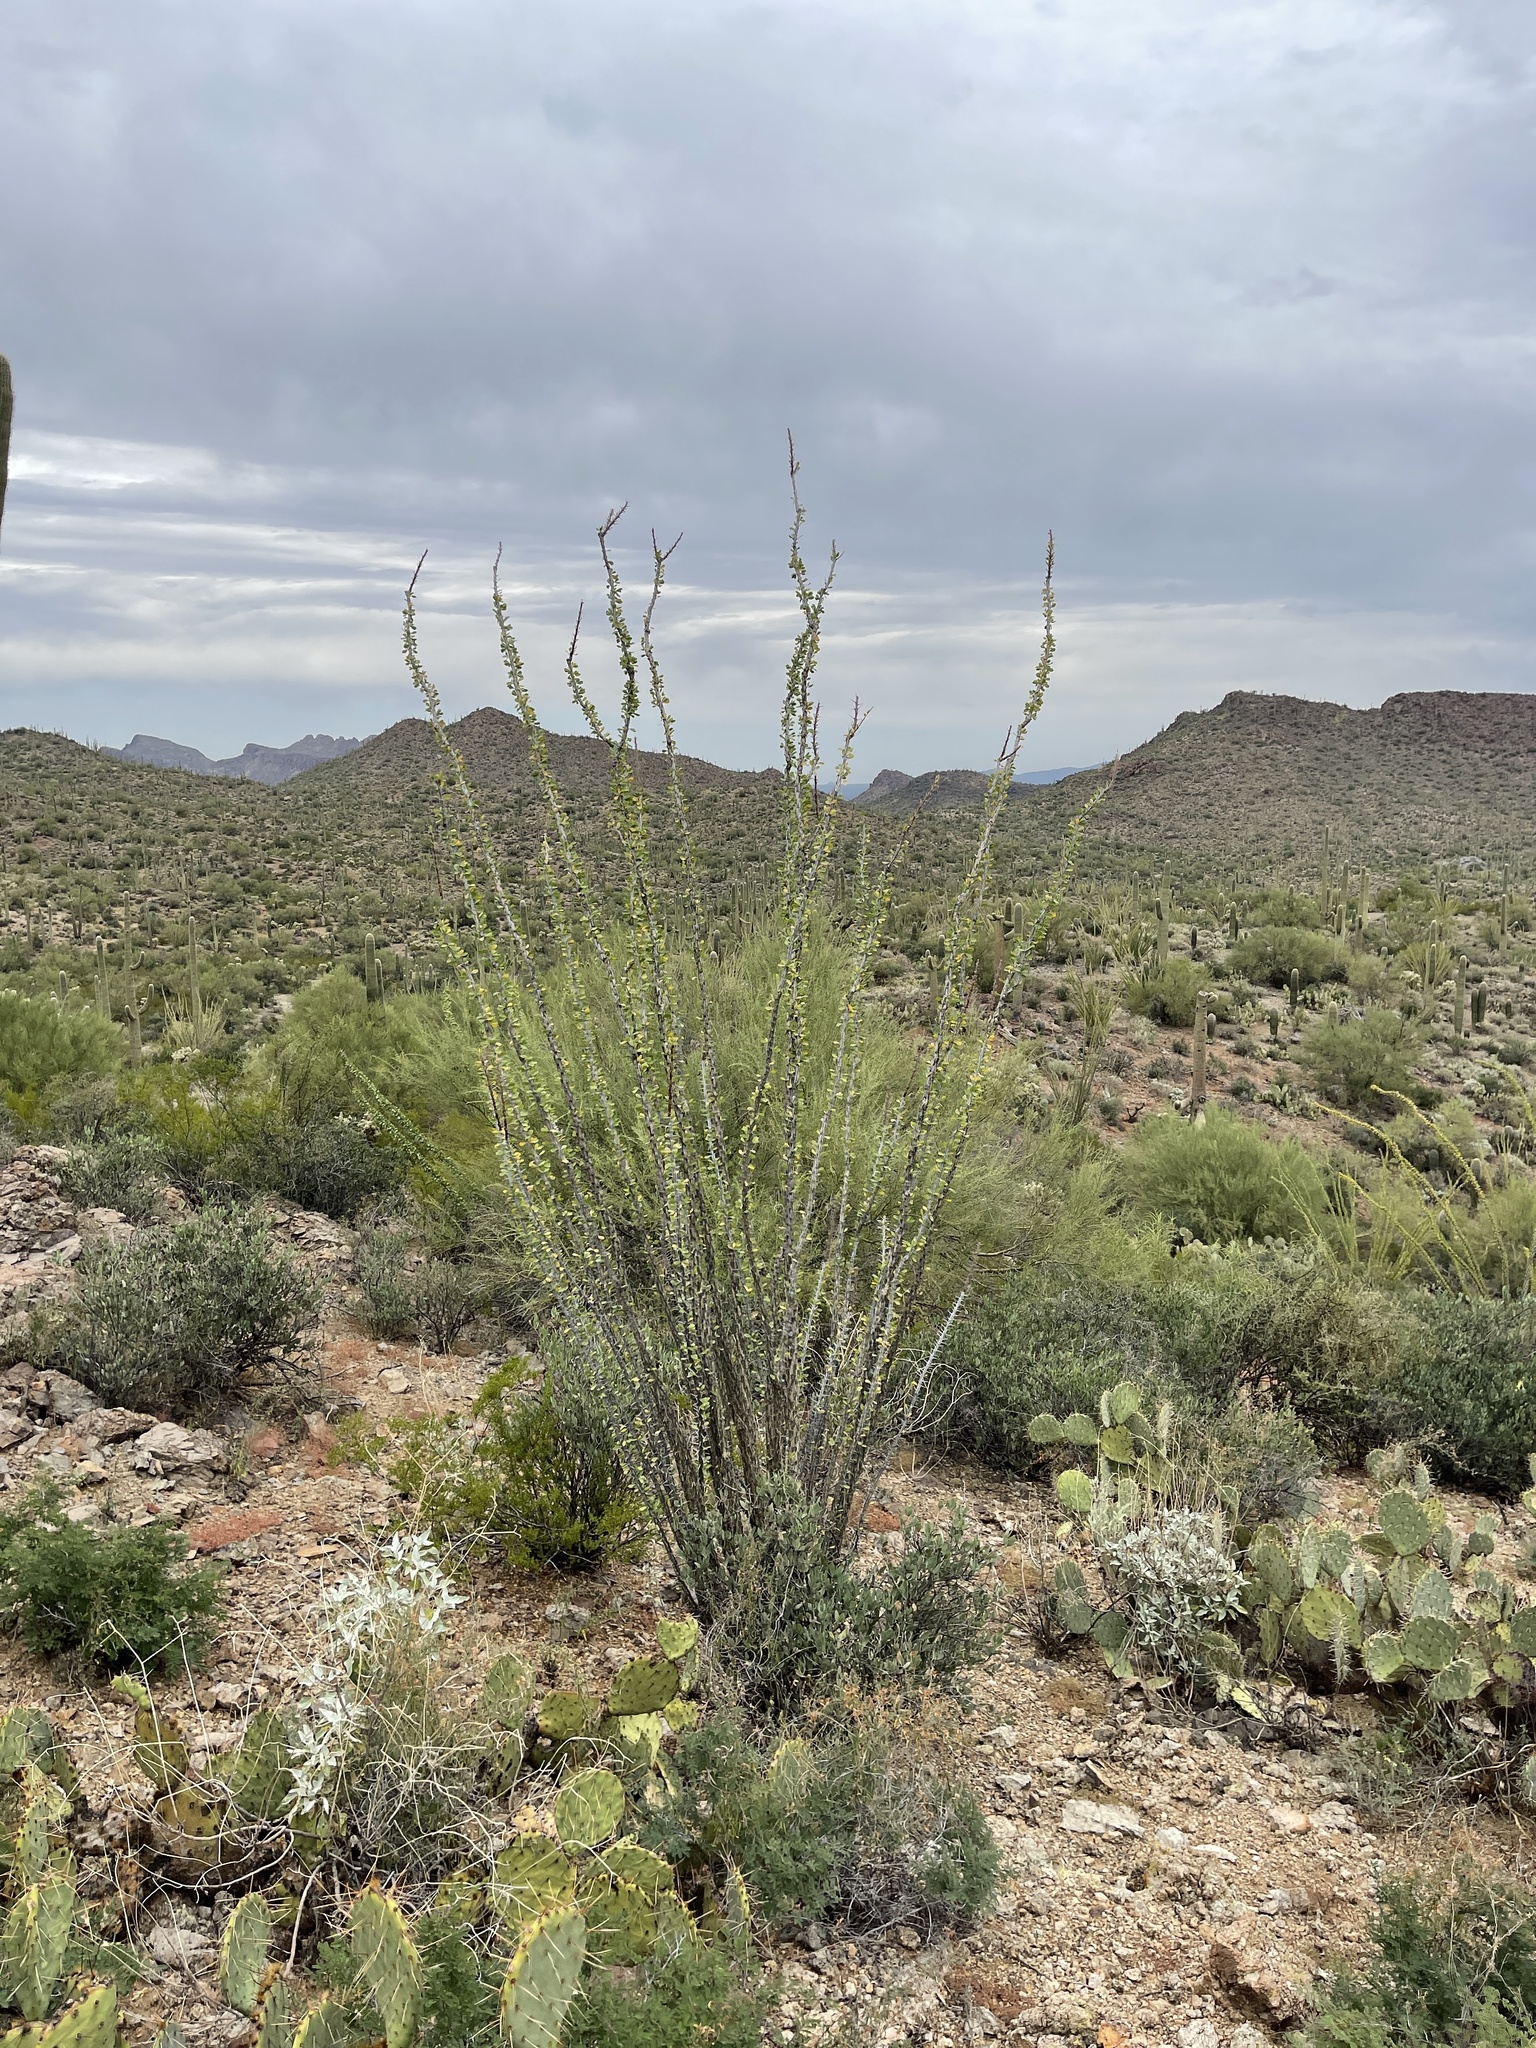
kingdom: Plantae
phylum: Tracheophyta
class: Magnoliopsida
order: Ericales
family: Fouquieriaceae
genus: Fouquieria
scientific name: Fouquieria splendens
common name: Vine-cactus
